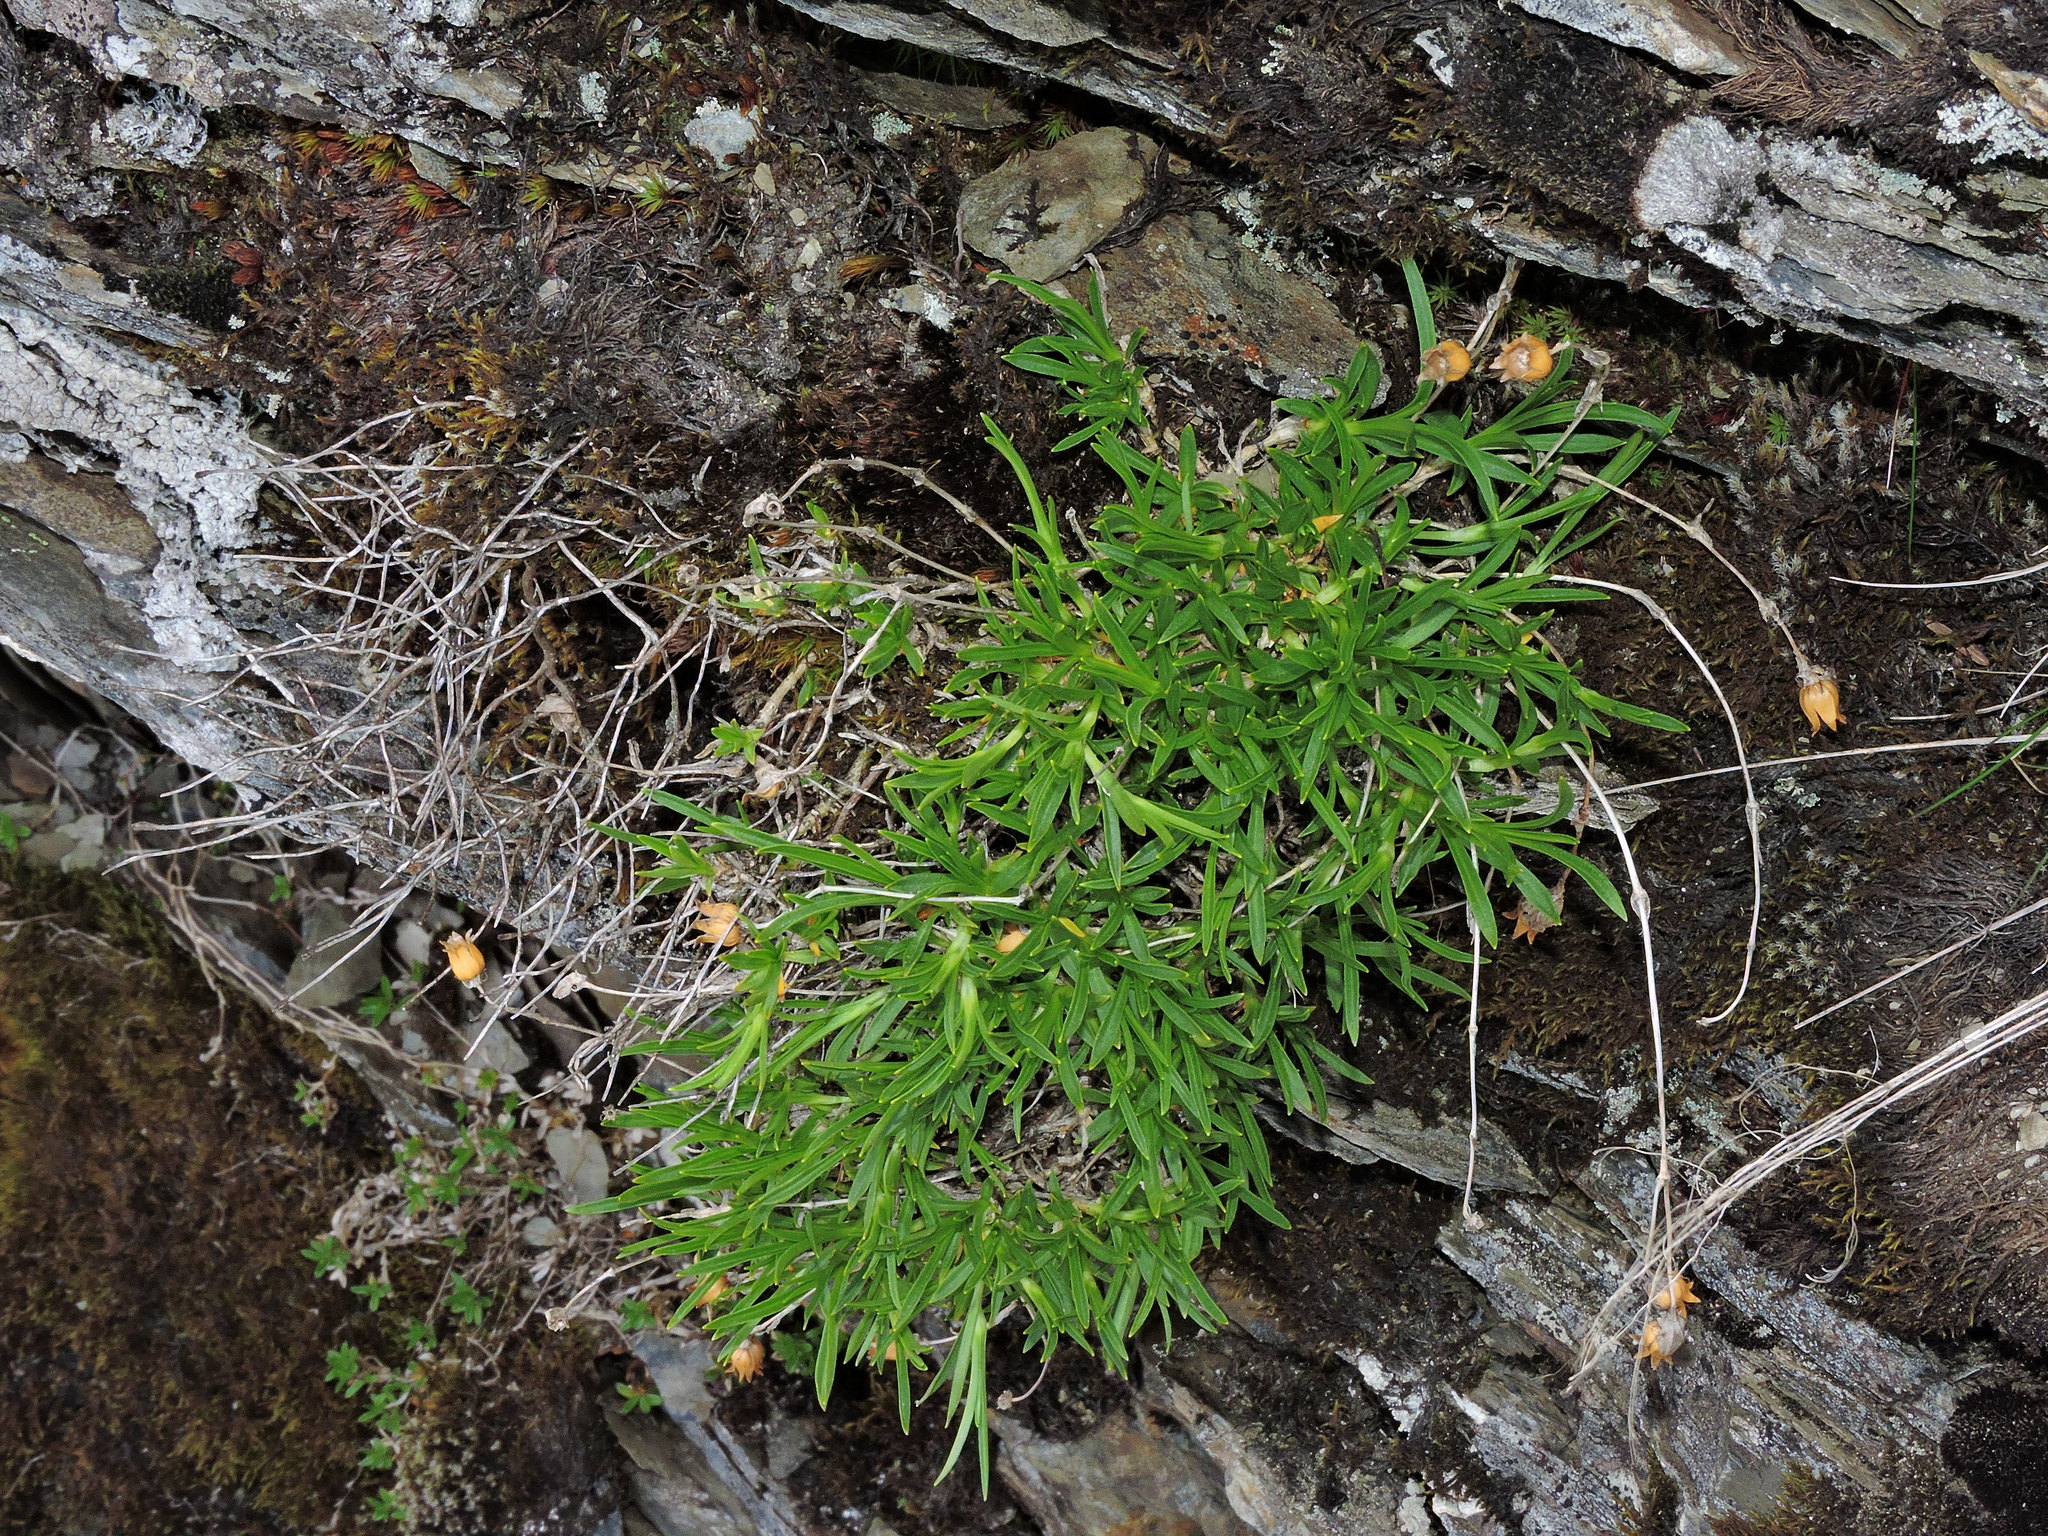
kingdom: Plantae
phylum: Tracheophyta
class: Magnoliopsida
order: Caryophyllales
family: Caryophyllaceae
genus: Silene
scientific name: Silene ohwii
